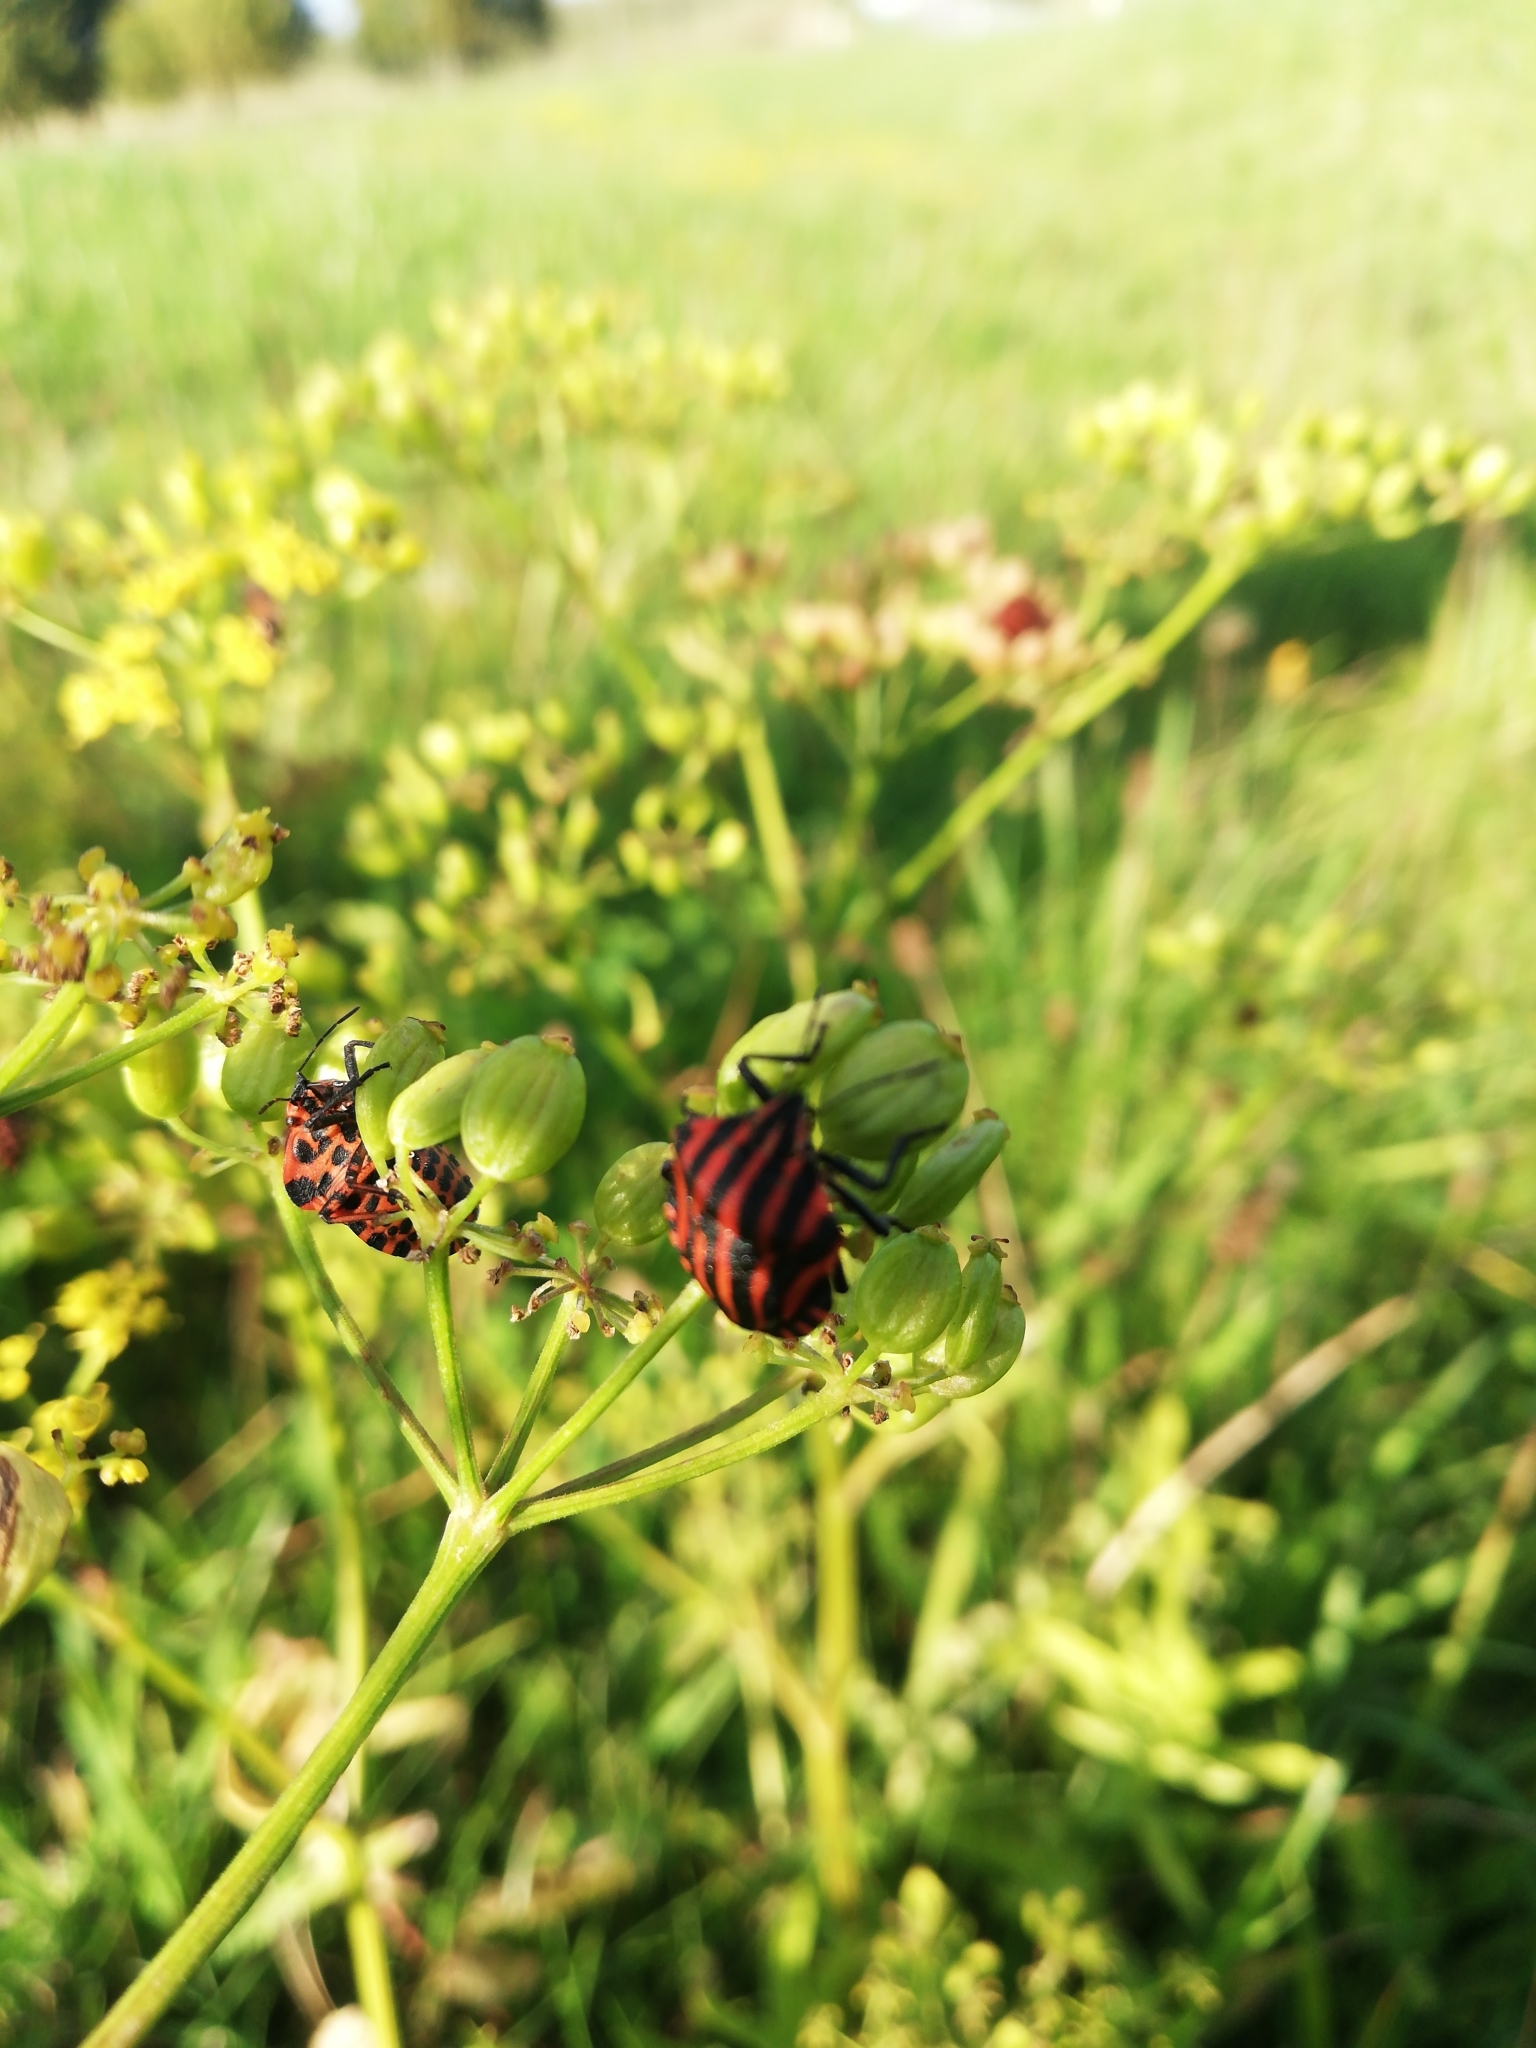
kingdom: Animalia
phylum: Arthropoda
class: Insecta
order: Hemiptera
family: Pentatomidae
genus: Graphosoma
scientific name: Graphosoma italicum
